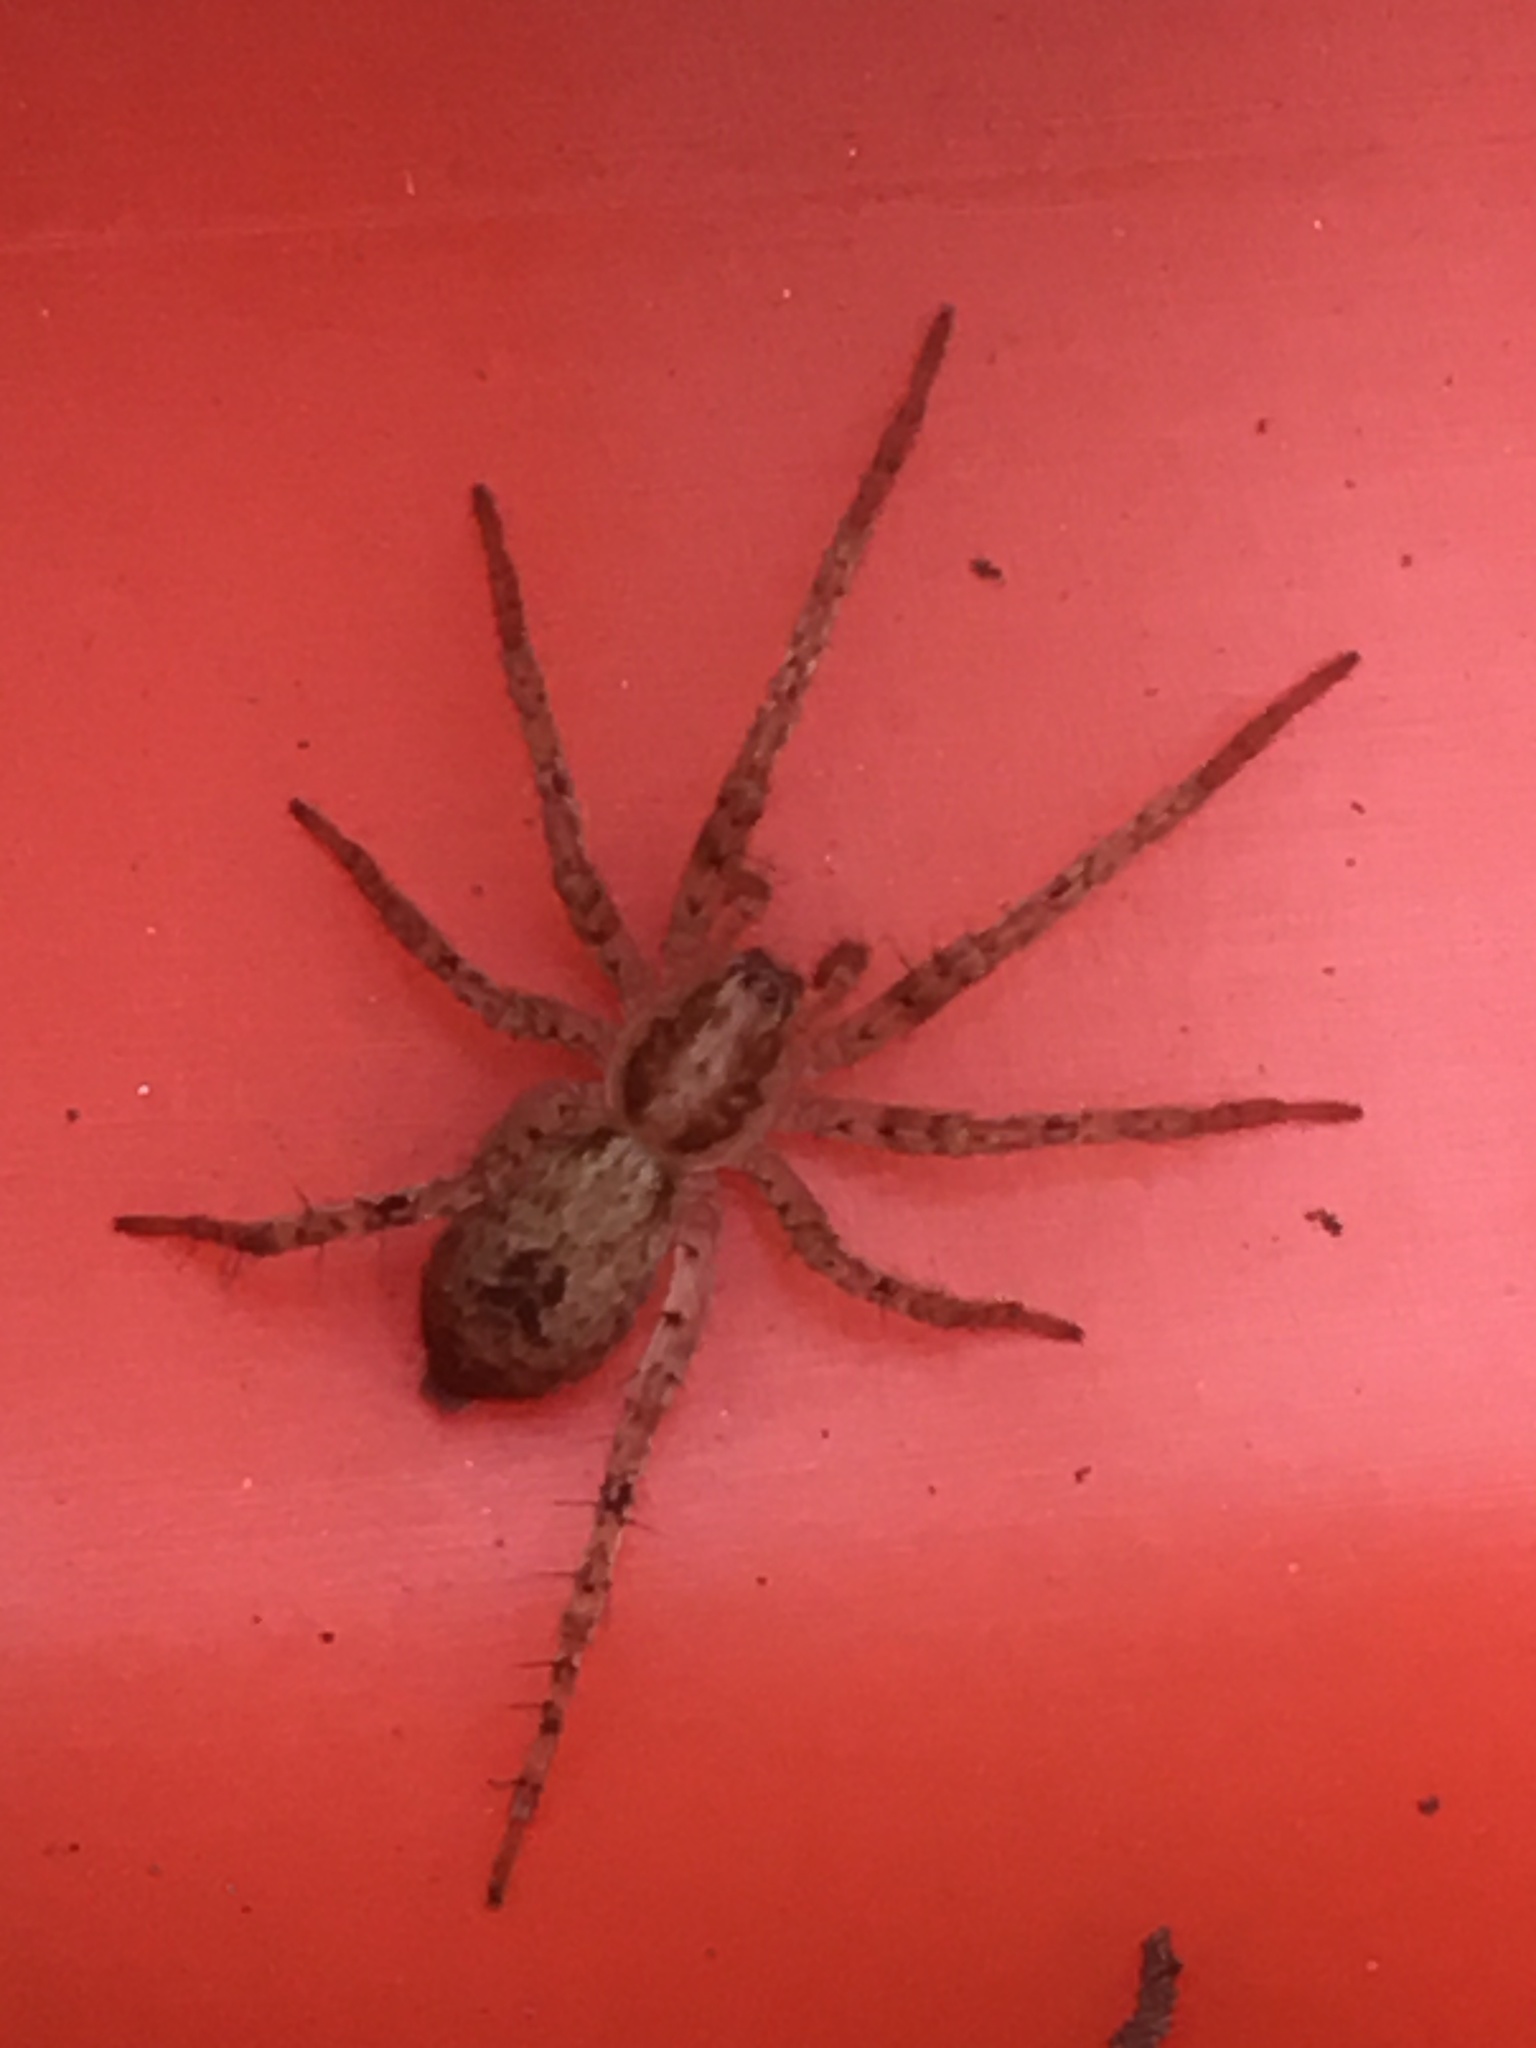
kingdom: Animalia
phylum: Arthropoda
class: Arachnida
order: Araneae
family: Anyphaenidae
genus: Anyphaena
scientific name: Anyphaena accentuata
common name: Buzzing spider
